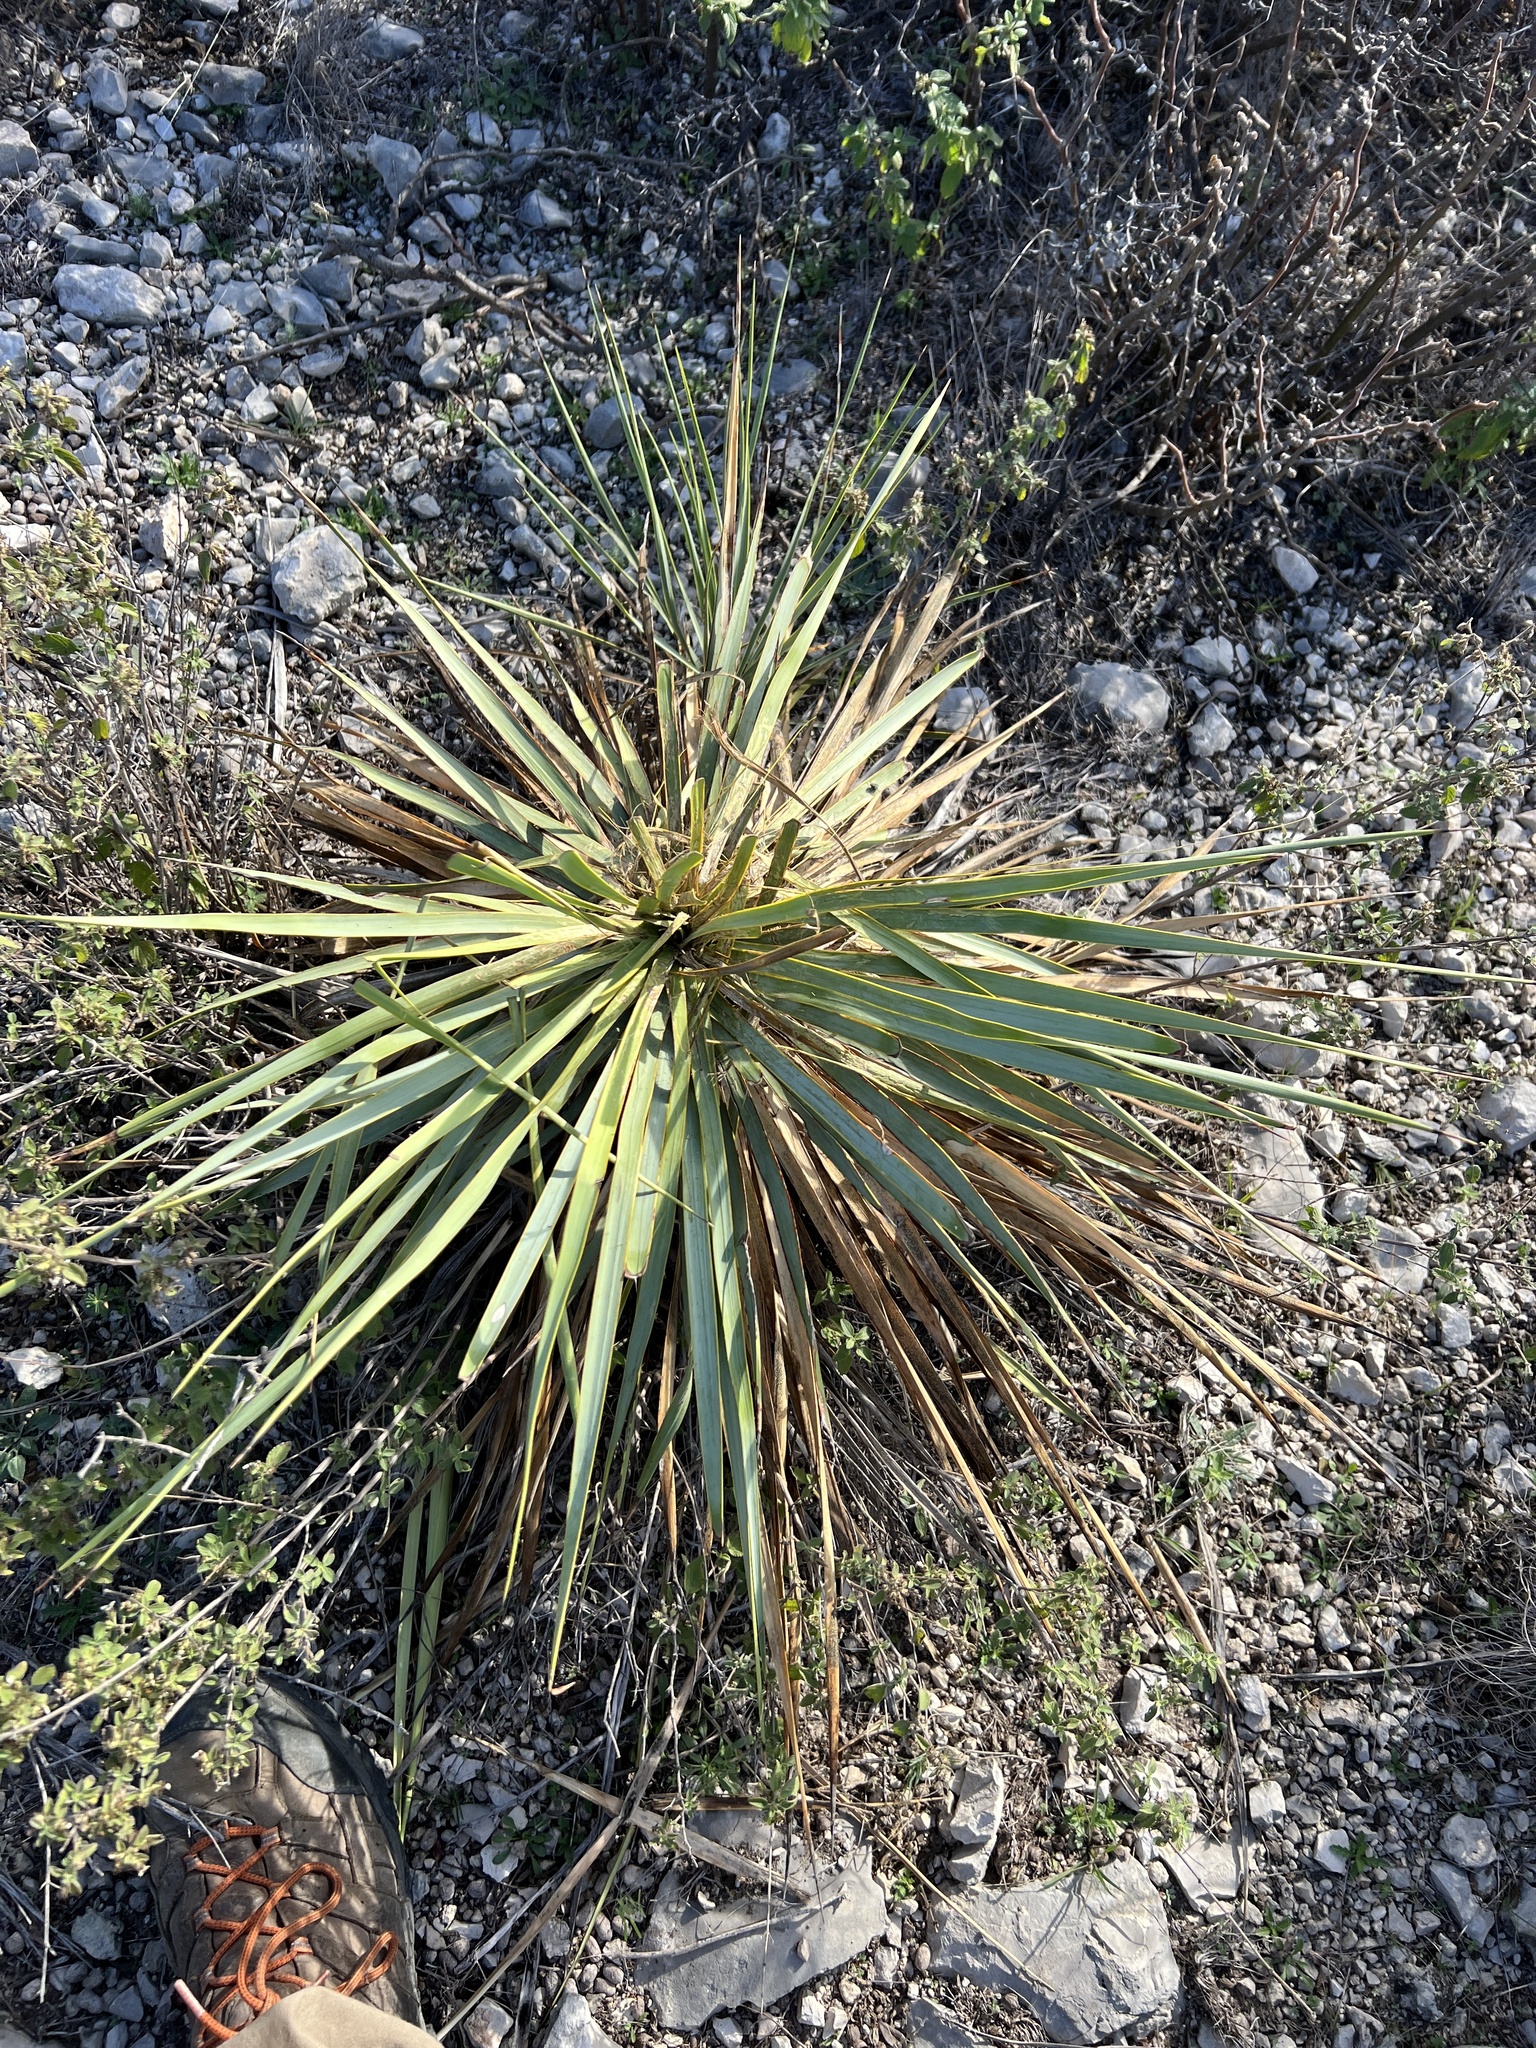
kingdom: Plantae
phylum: Tracheophyta
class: Liliopsida
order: Asparagales
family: Asparagaceae
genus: Yucca
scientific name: Yucca reverchonii
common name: San angelo yucca
